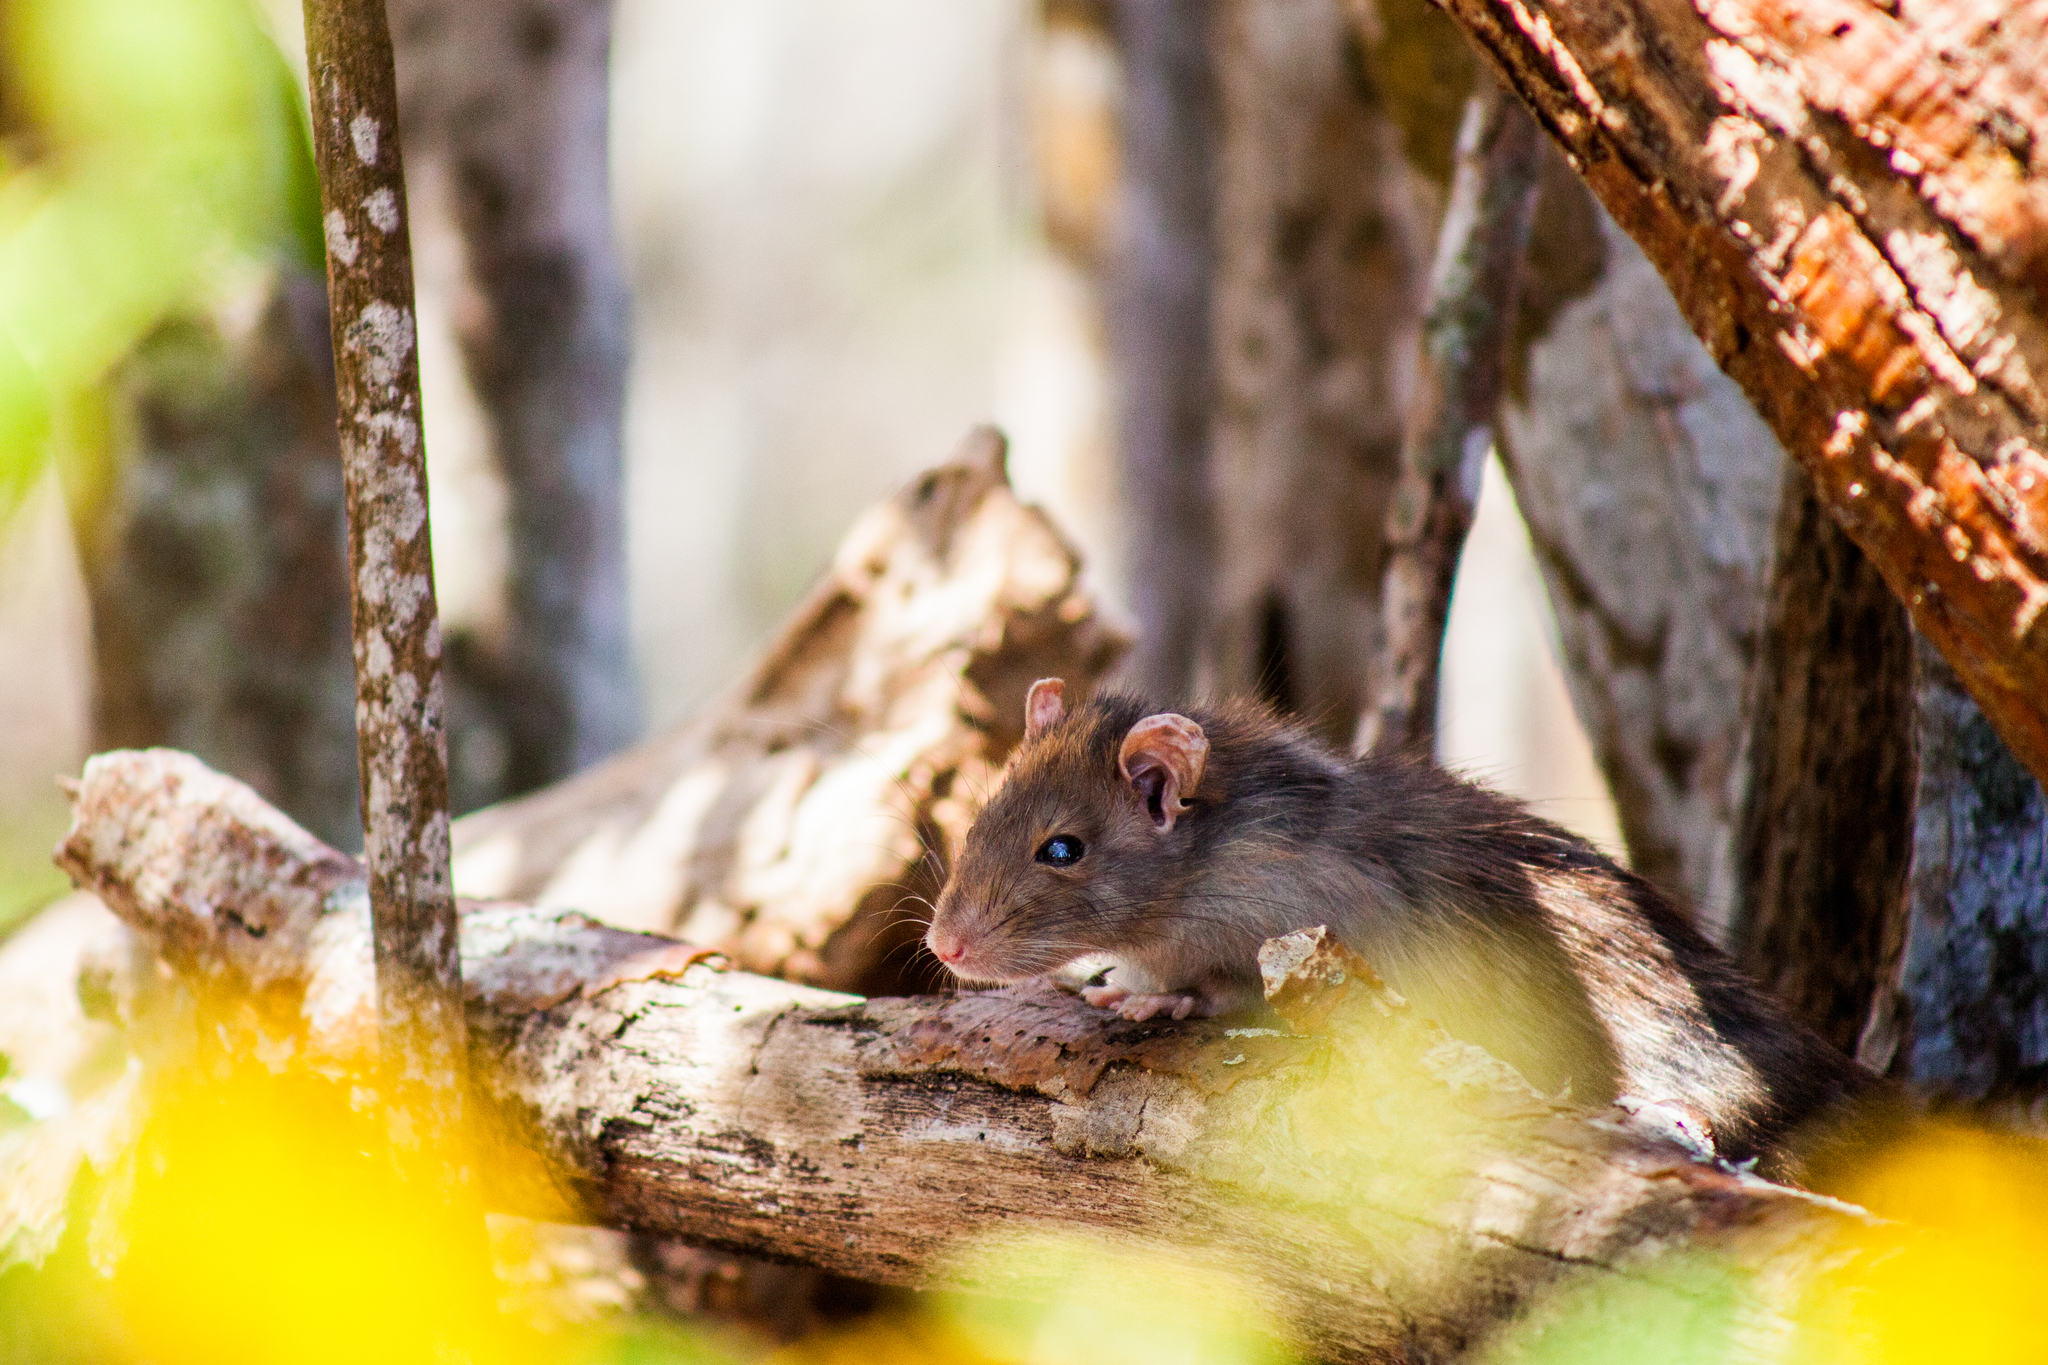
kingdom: Animalia
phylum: Chordata
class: Mammalia
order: Rodentia
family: Muridae
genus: Rattus
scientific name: Rattus norvegicus
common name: Brown rat
